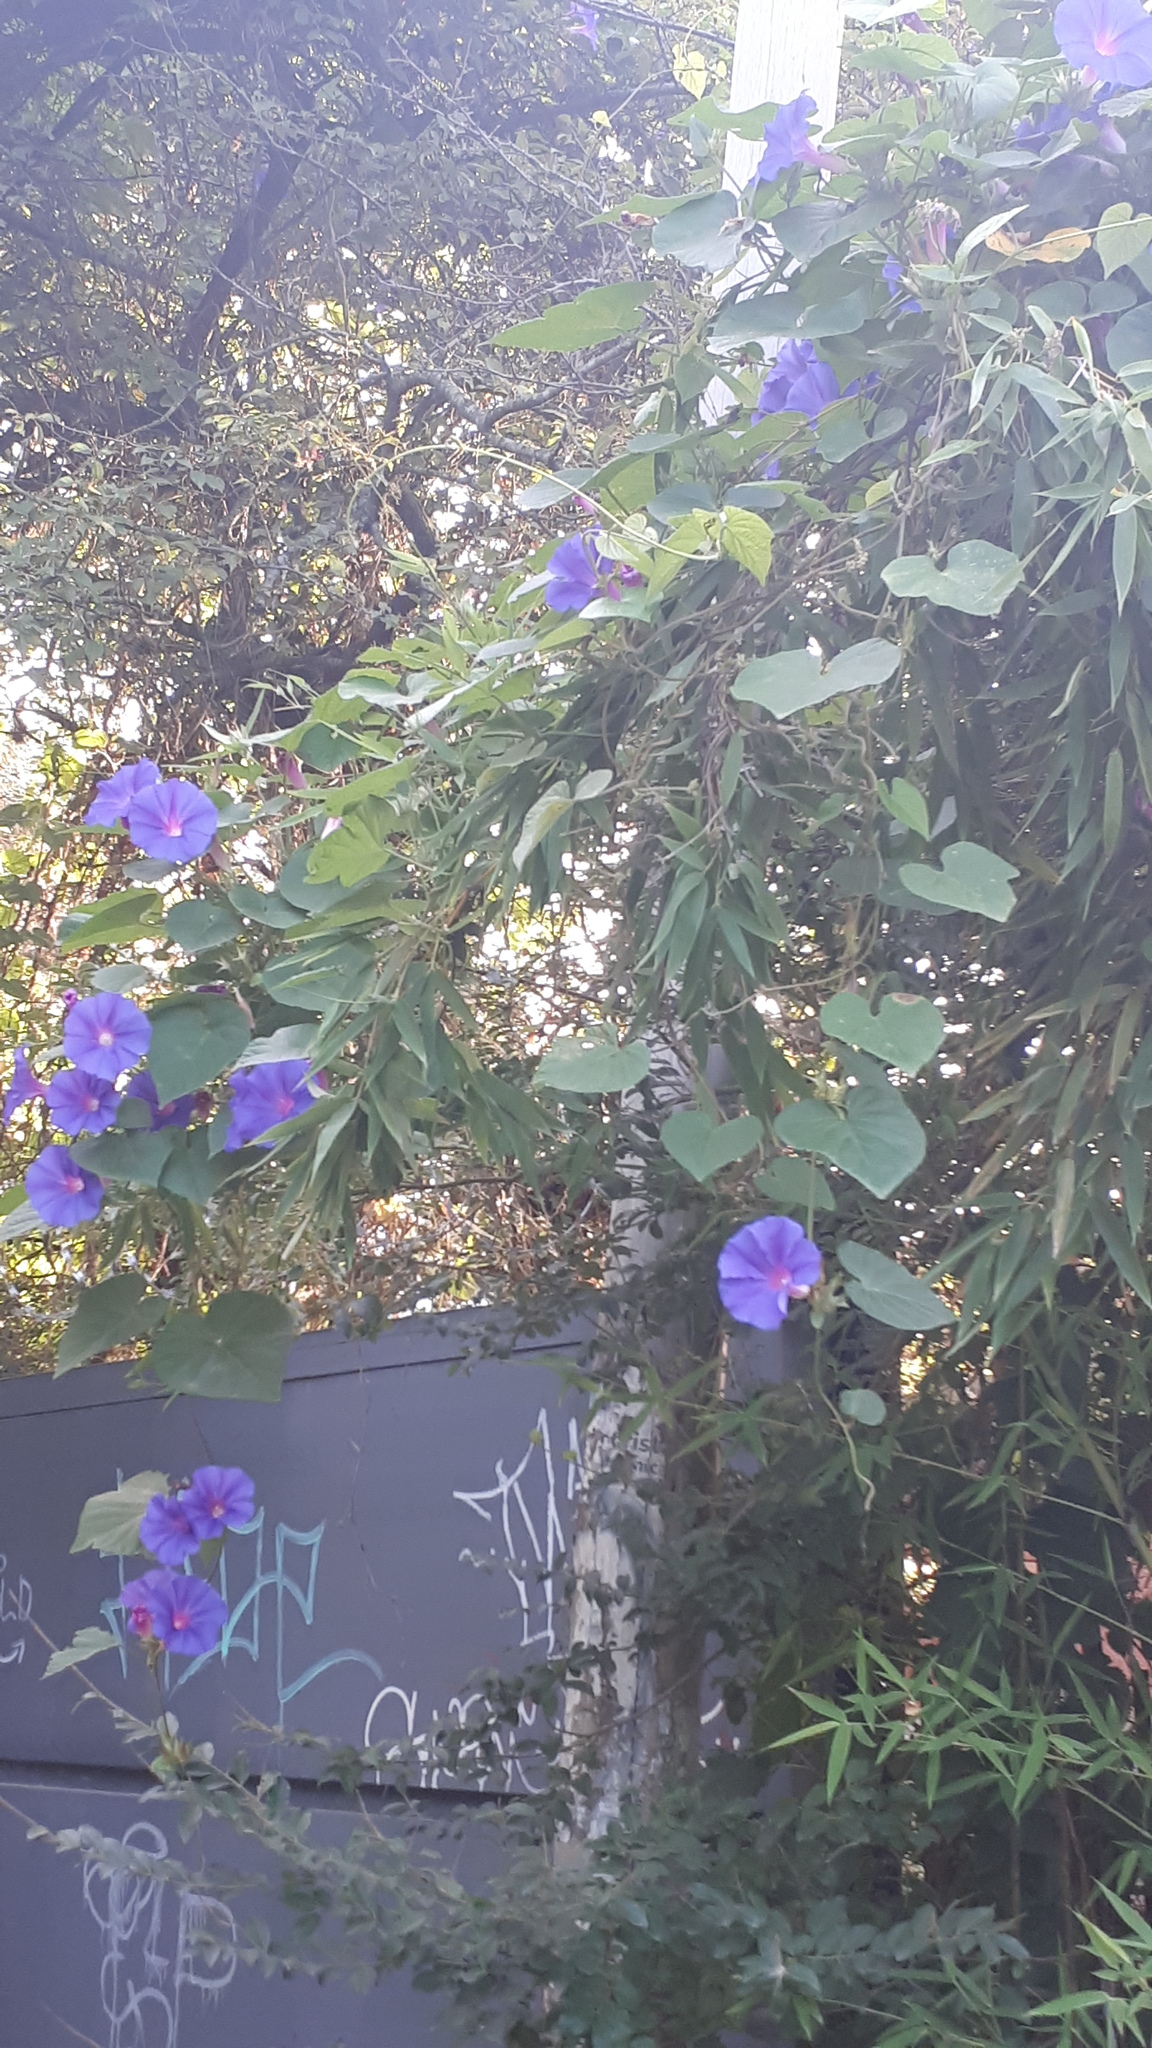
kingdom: Plantae
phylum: Tracheophyta
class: Magnoliopsida
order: Solanales
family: Convolvulaceae
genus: Ipomoea
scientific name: Ipomoea indica
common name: Blue dawnflower
